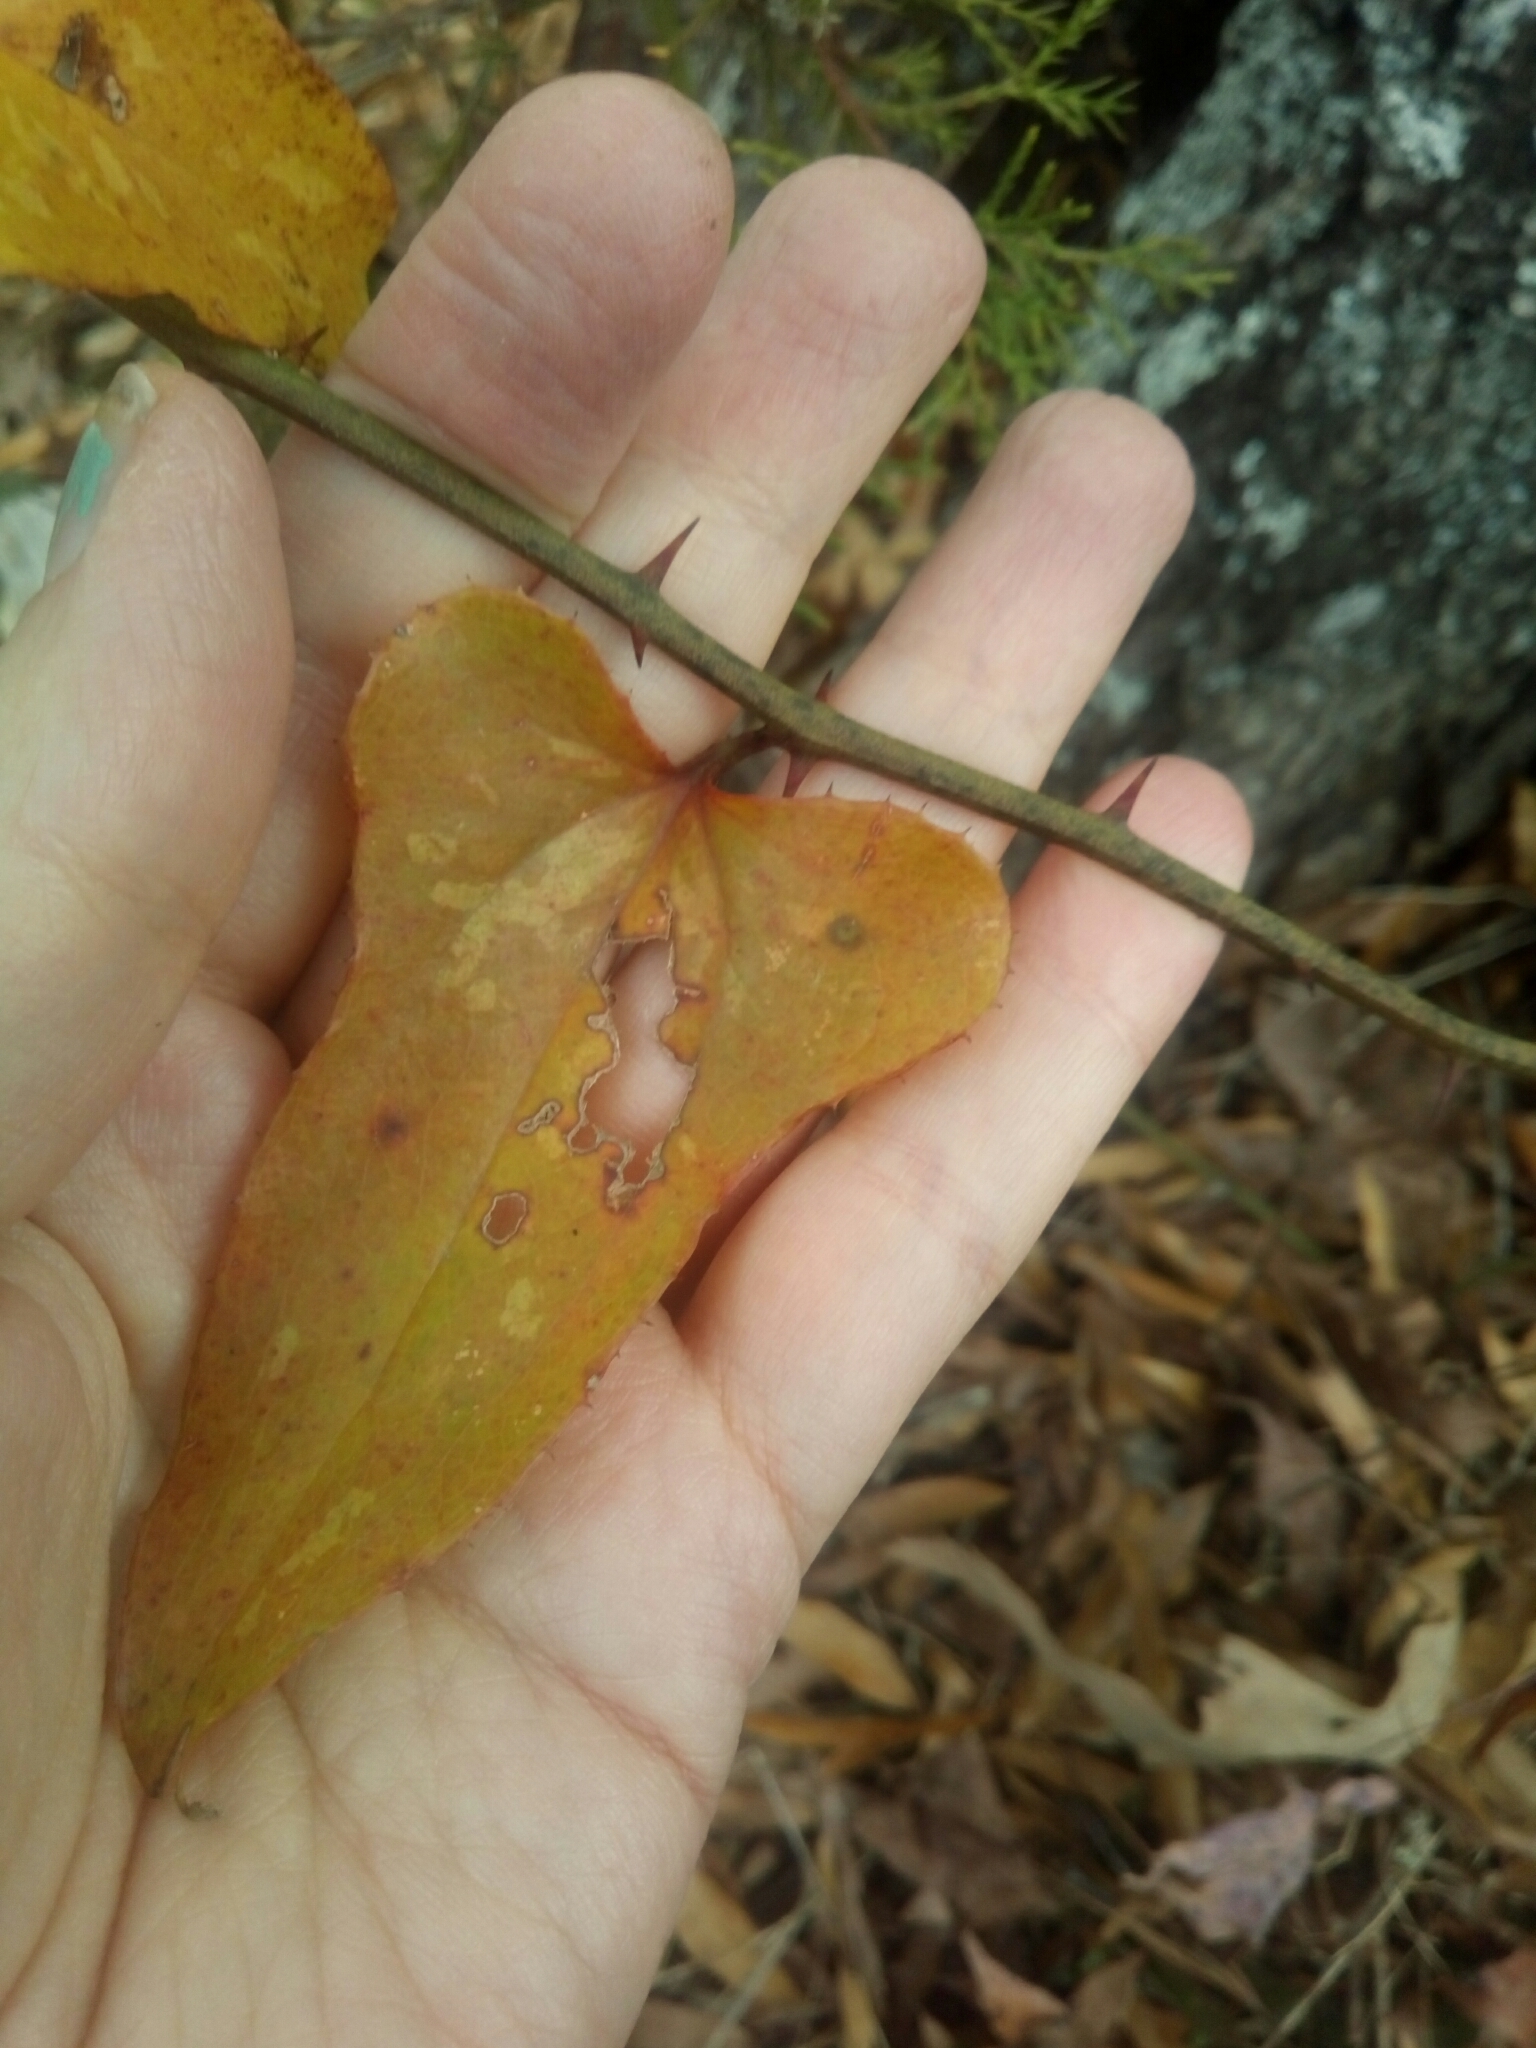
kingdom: Plantae
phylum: Tracheophyta
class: Liliopsida
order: Liliales
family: Smilacaceae
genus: Smilax
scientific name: Smilax bona-nox
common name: Catbrier
